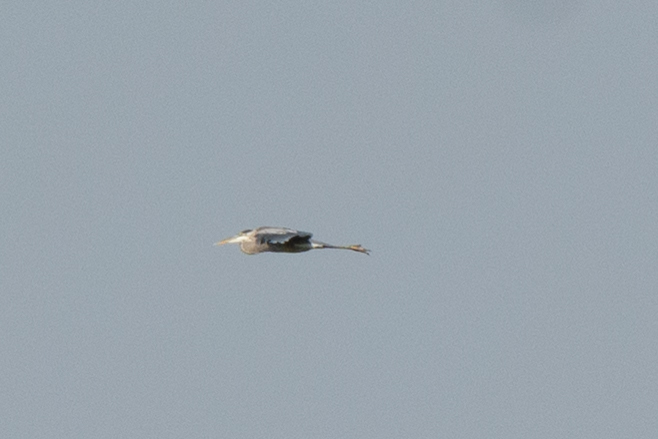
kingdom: Animalia
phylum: Chordata
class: Aves
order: Pelecaniformes
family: Ardeidae
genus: Ardea
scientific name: Ardea herodias
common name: Great blue heron
